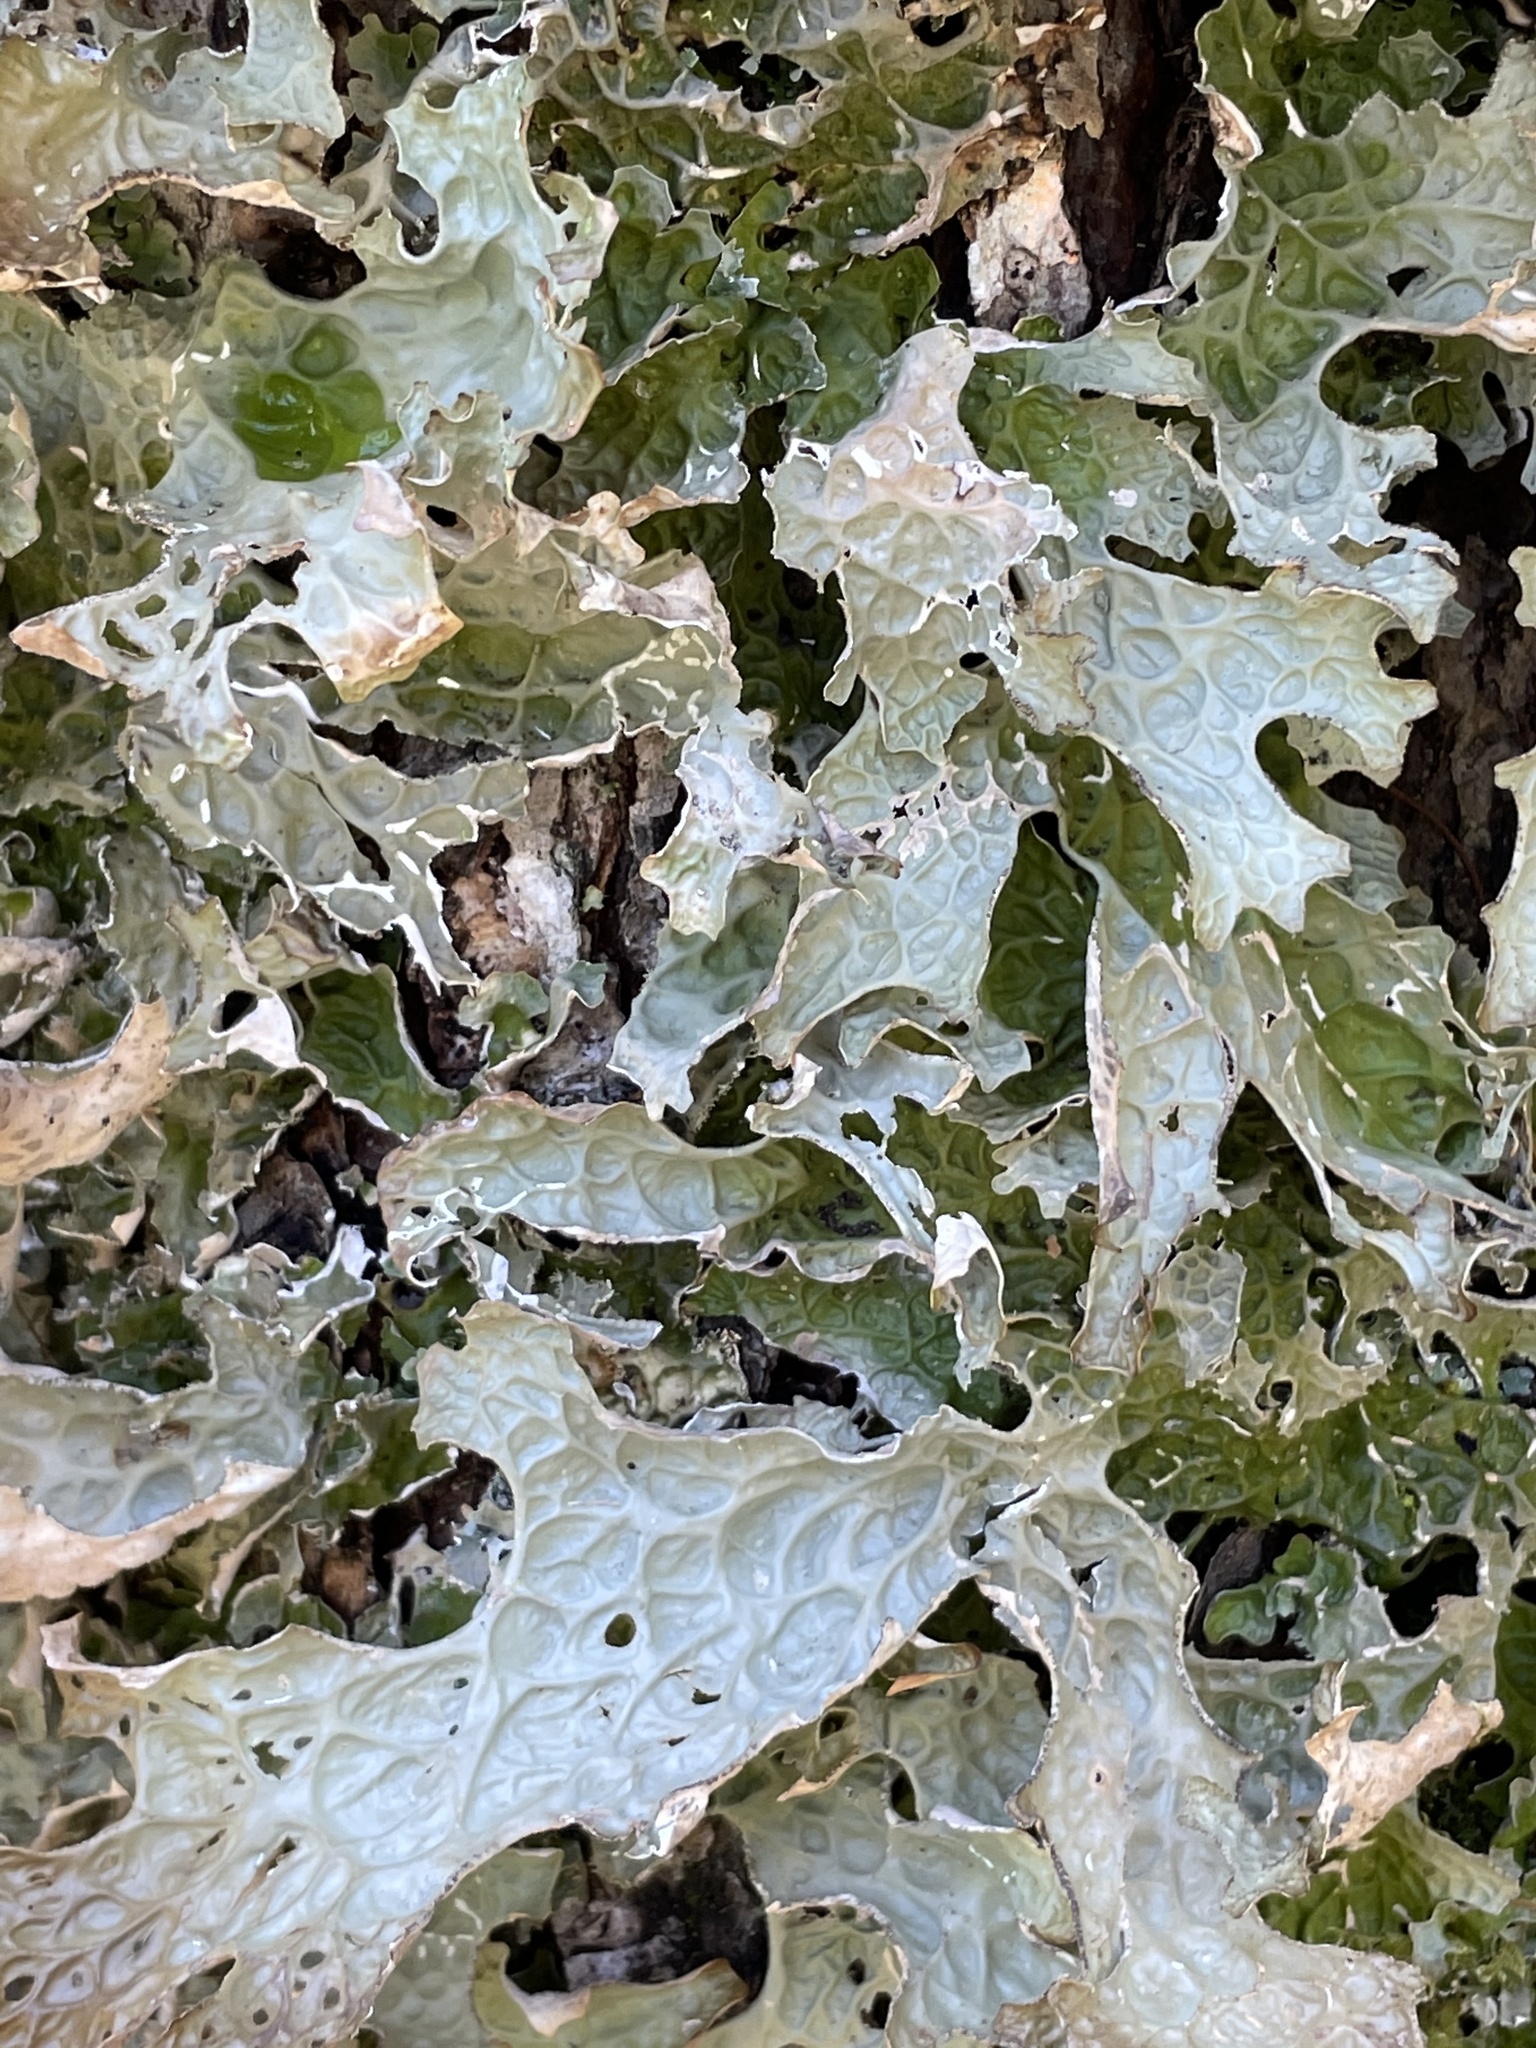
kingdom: Fungi
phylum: Ascomycota
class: Lecanoromycetes
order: Peltigerales
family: Lobariaceae
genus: Lobaria
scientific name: Lobaria pulmonaria
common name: Lungwort
